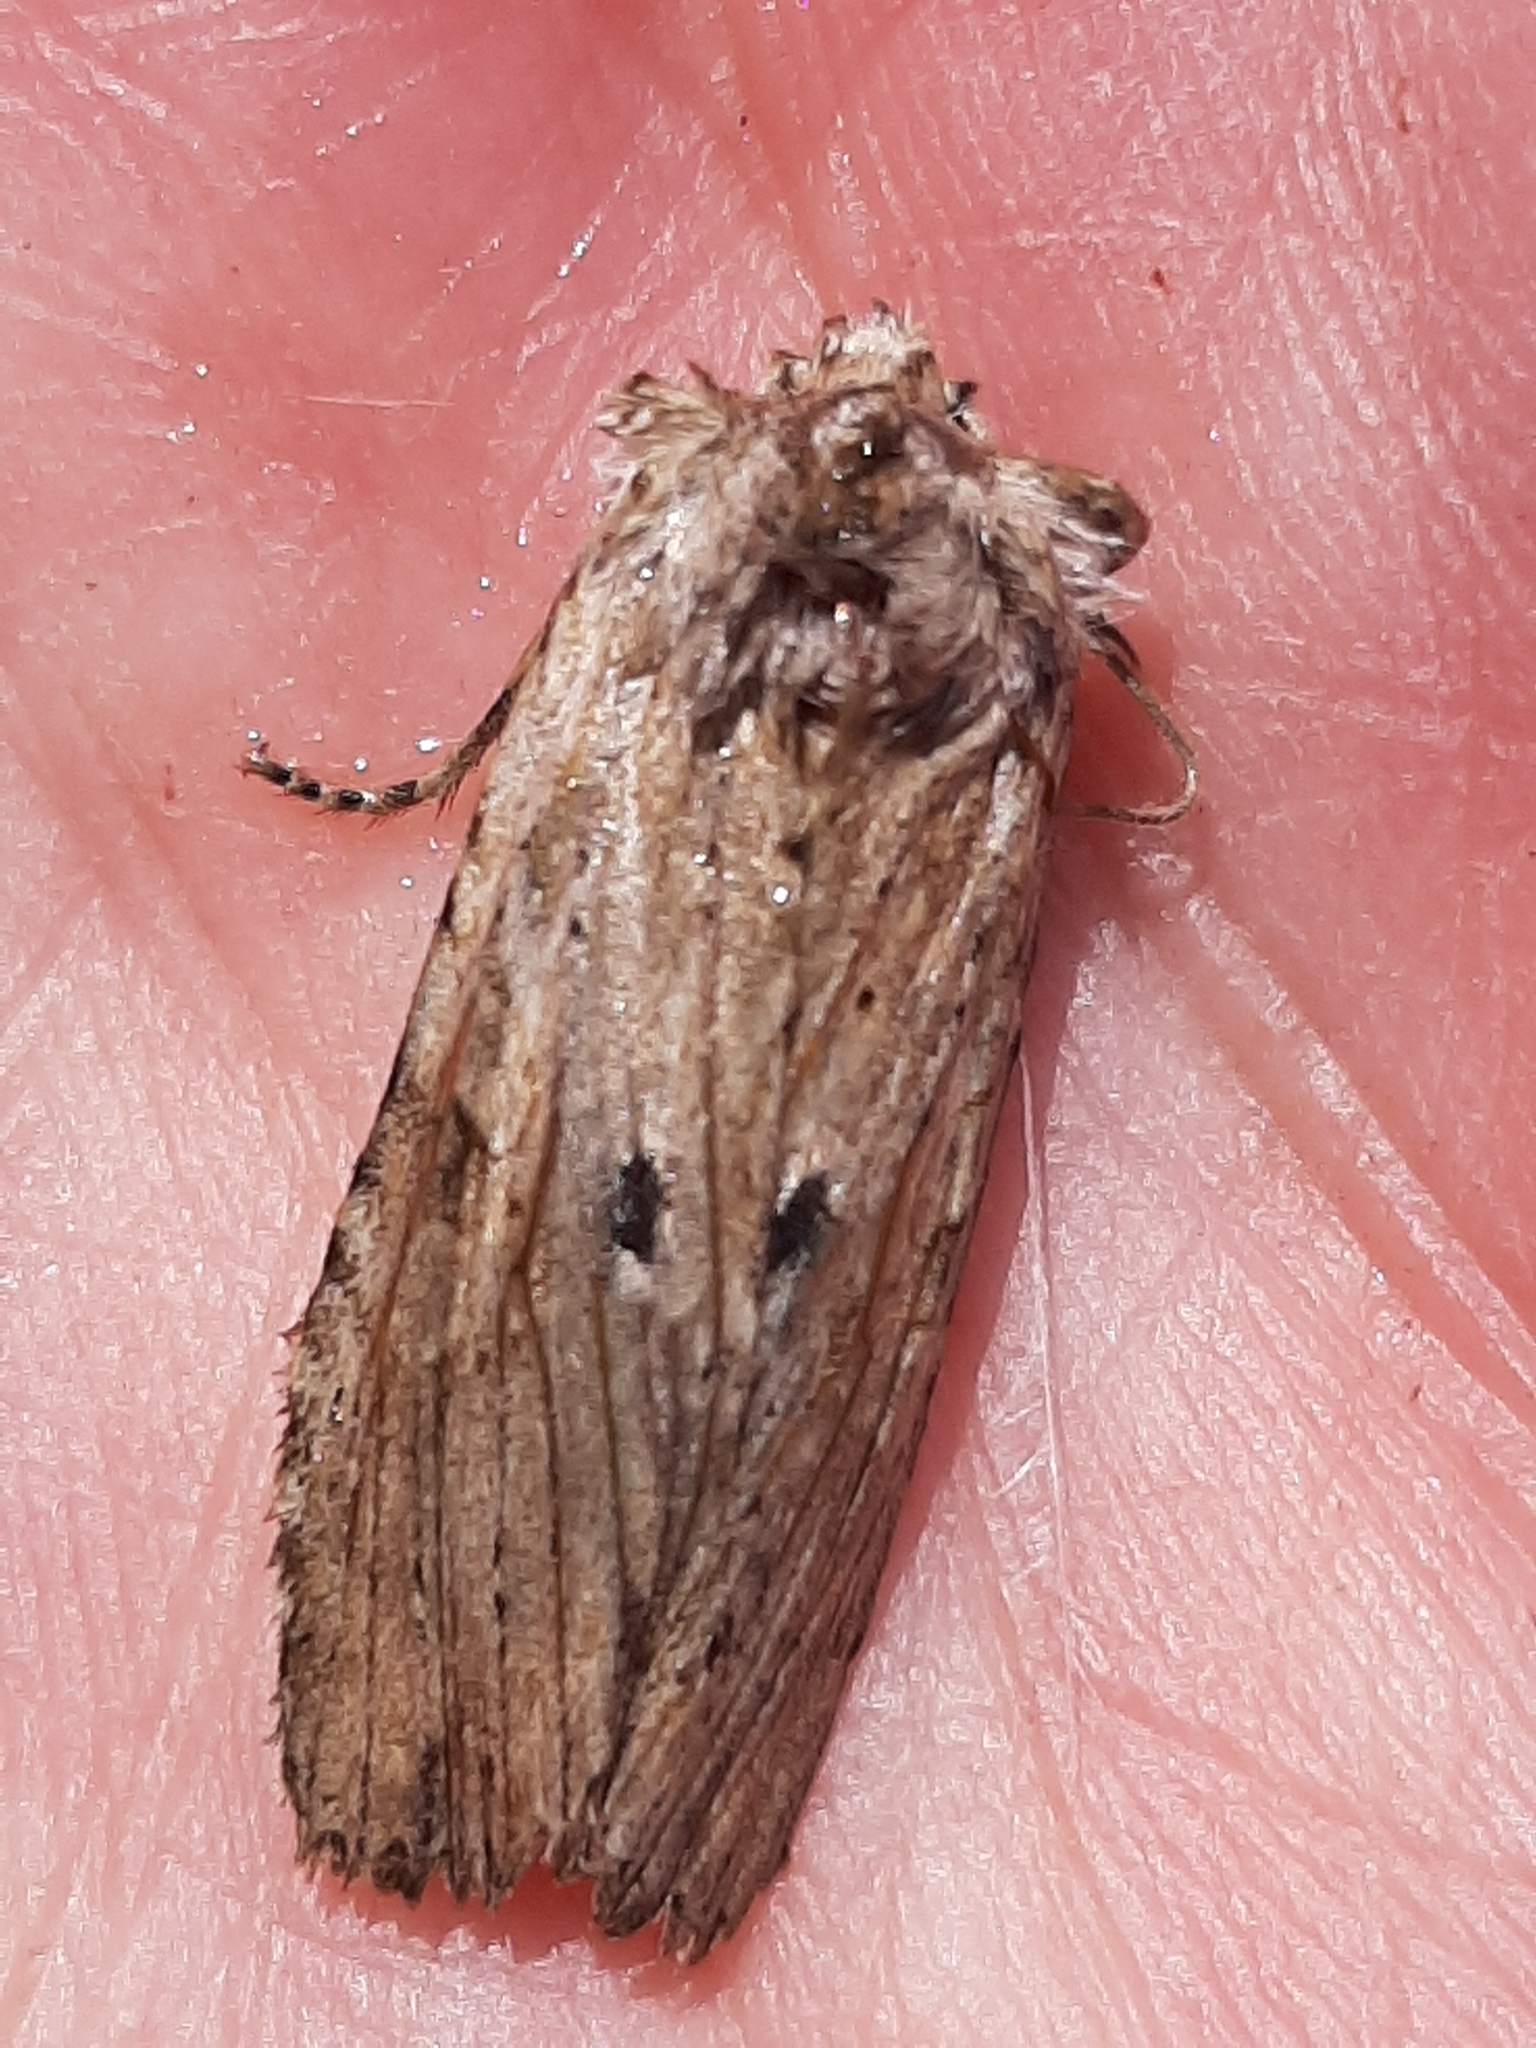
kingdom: Animalia
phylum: Arthropoda
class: Insecta
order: Lepidoptera
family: Noctuidae
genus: Lithophane
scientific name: Lithophane patefacta
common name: Dimorphic pinion moth
